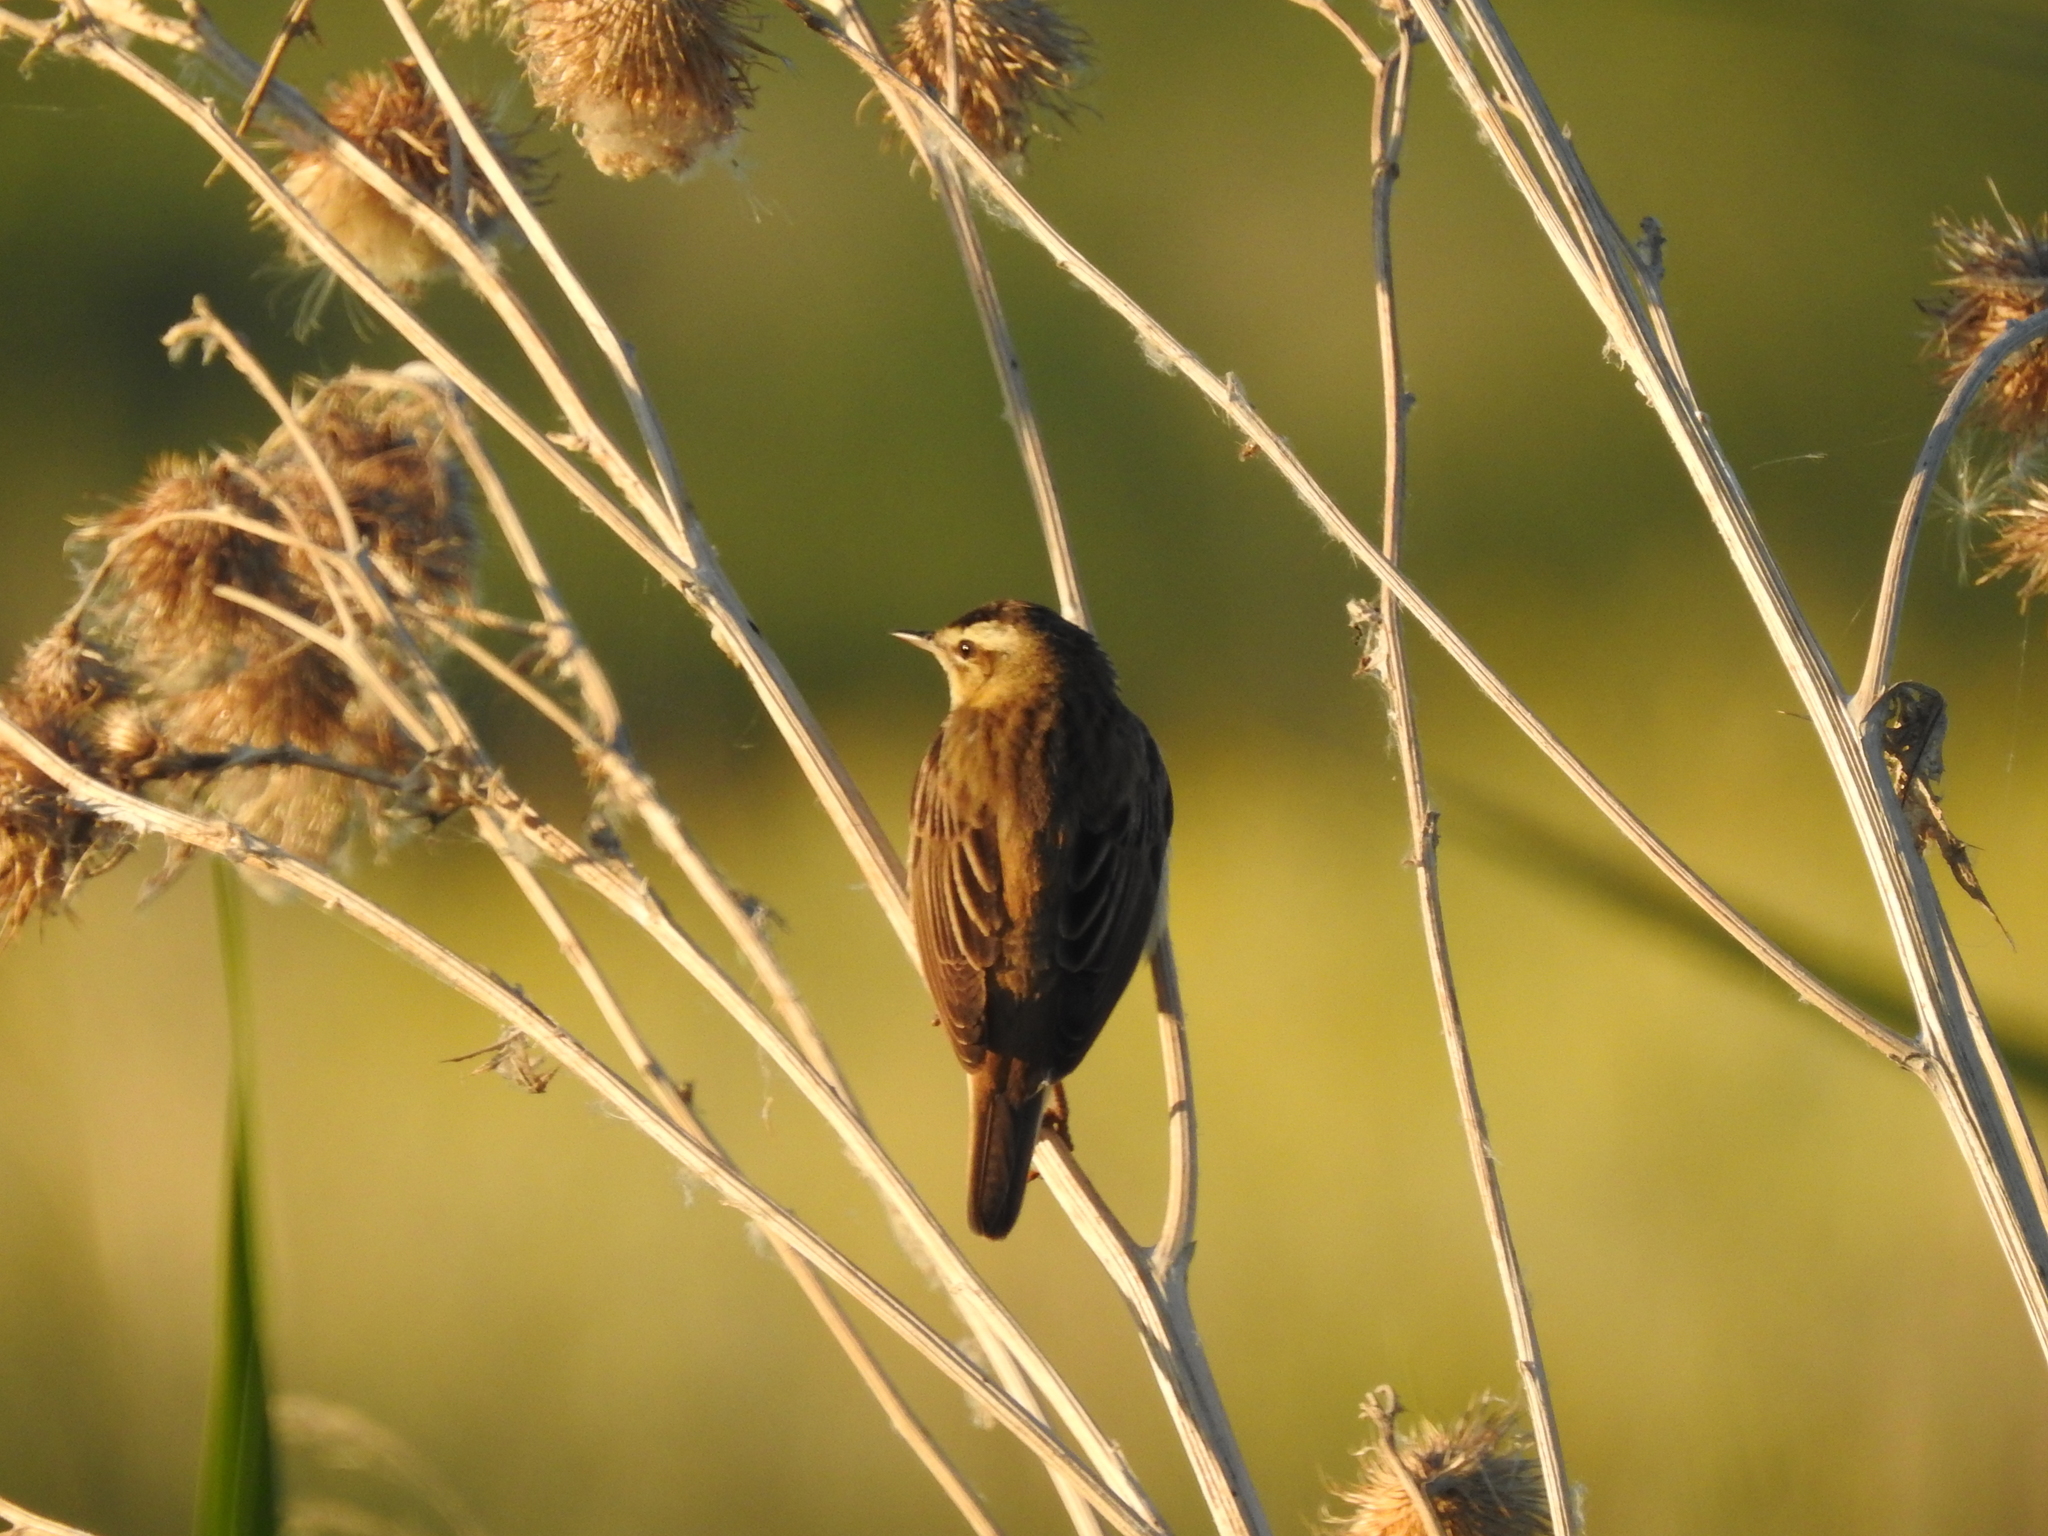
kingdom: Animalia
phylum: Chordata
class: Aves
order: Passeriformes
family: Acrocephalidae
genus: Acrocephalus
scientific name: Acrocephalus schoenobaenus
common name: Sedge warbler
